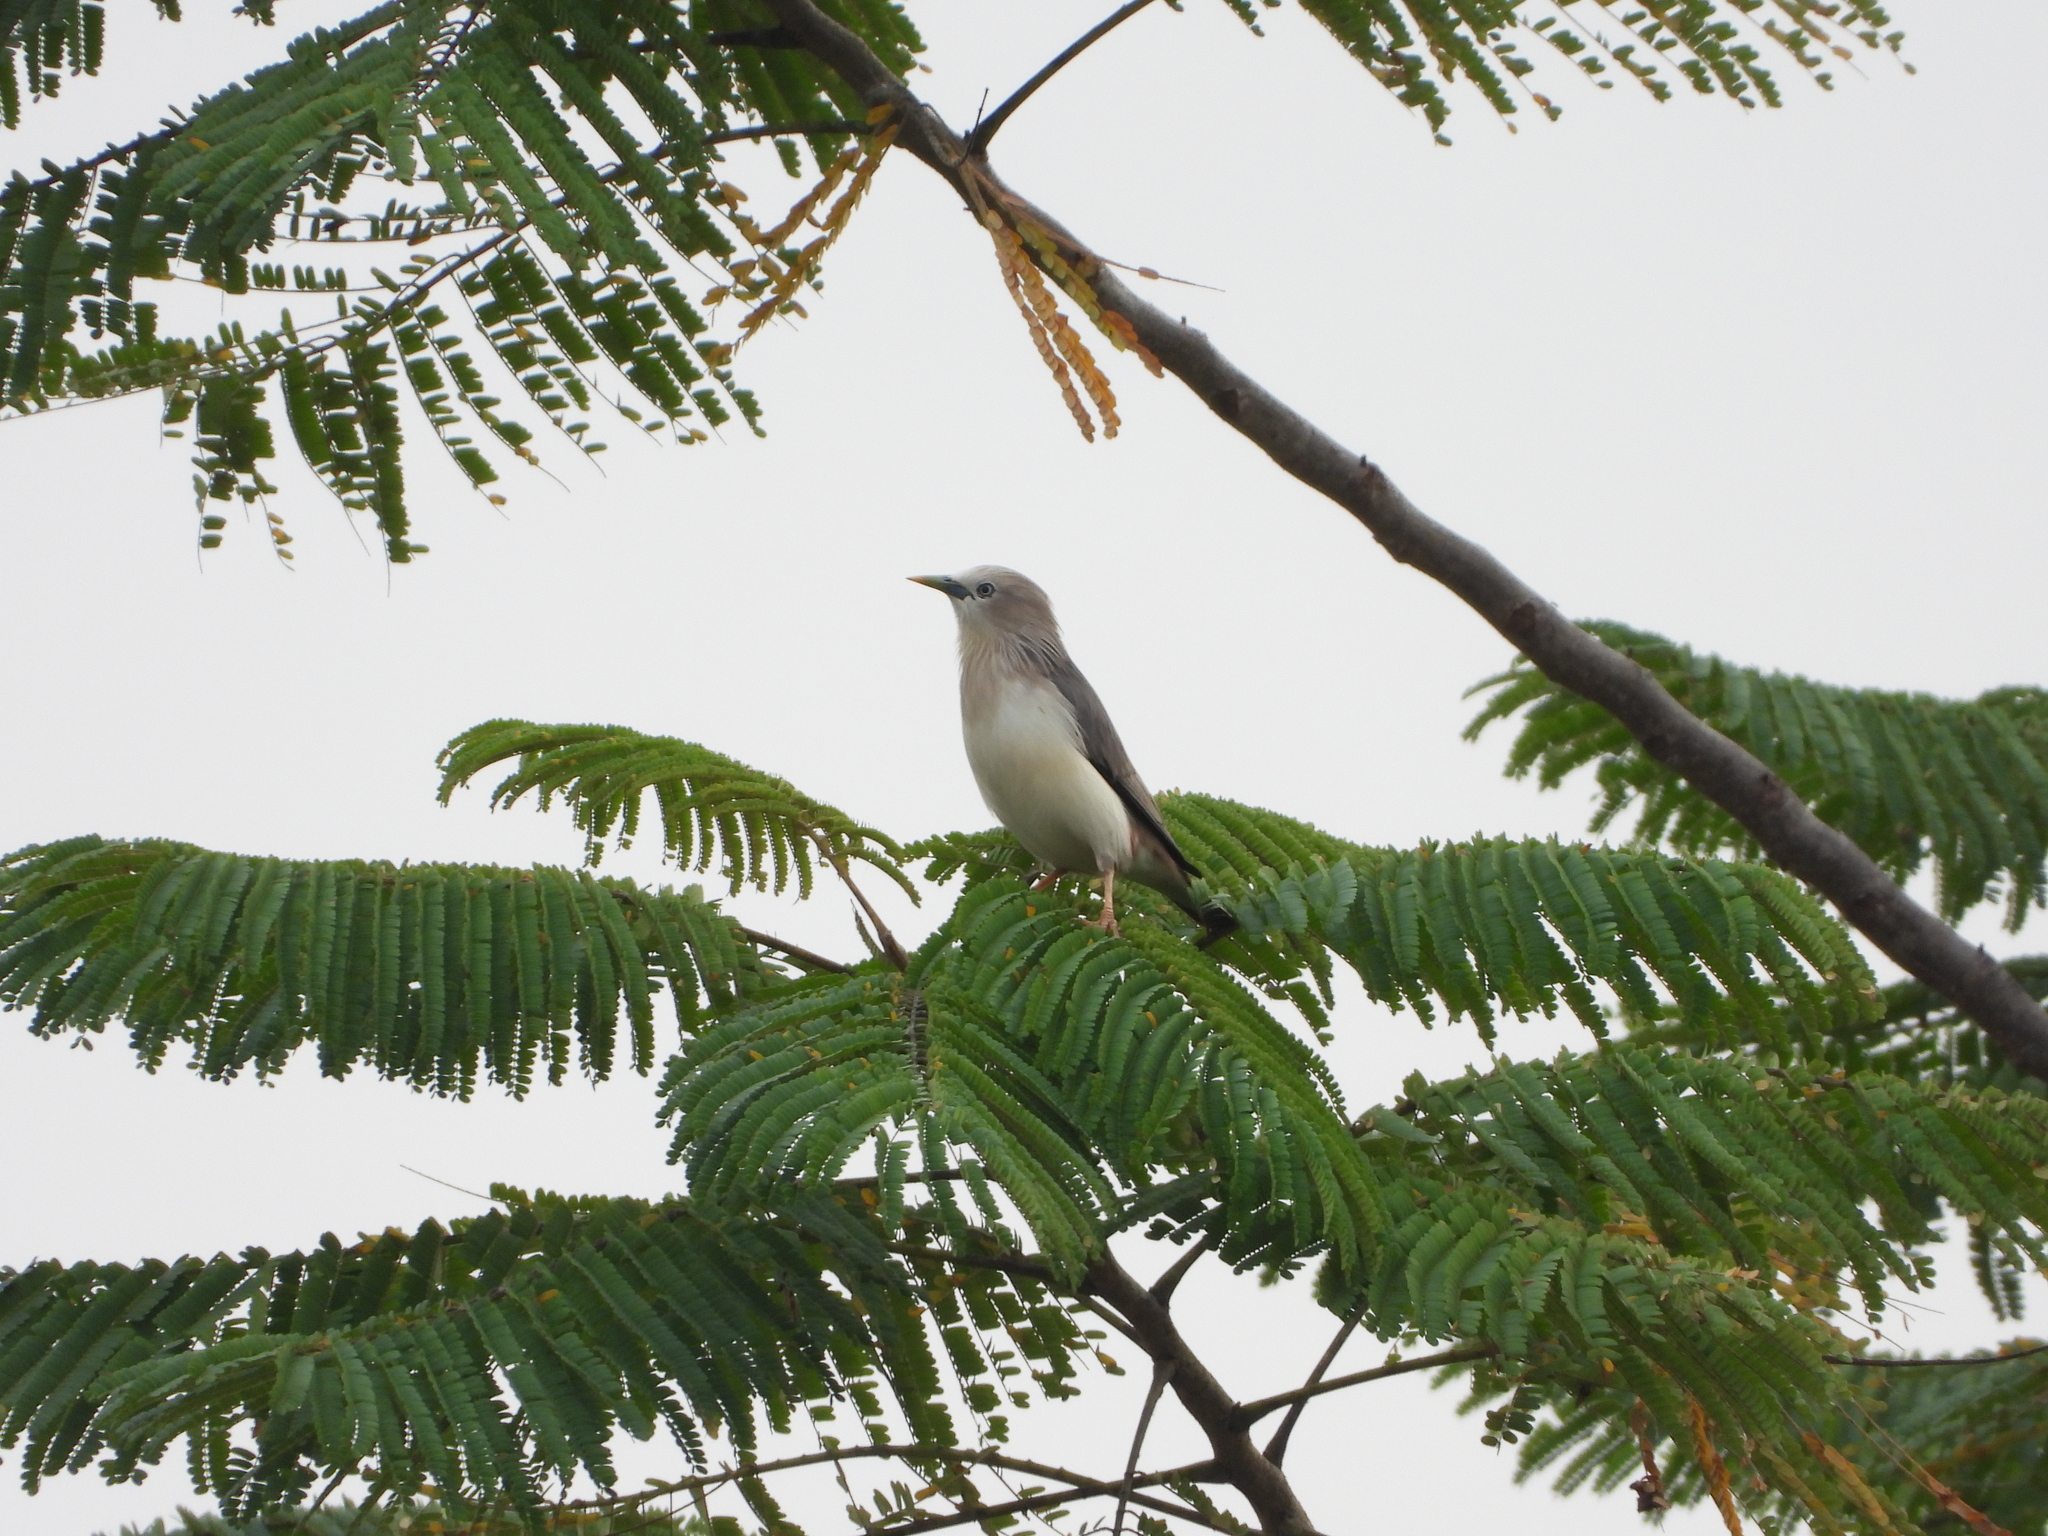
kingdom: Animalia
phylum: Chordata
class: Aves
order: Passeriformes
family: Sturnidae
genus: Sturnia
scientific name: Sturnia malabarica
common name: Chestnut-tailed starling
